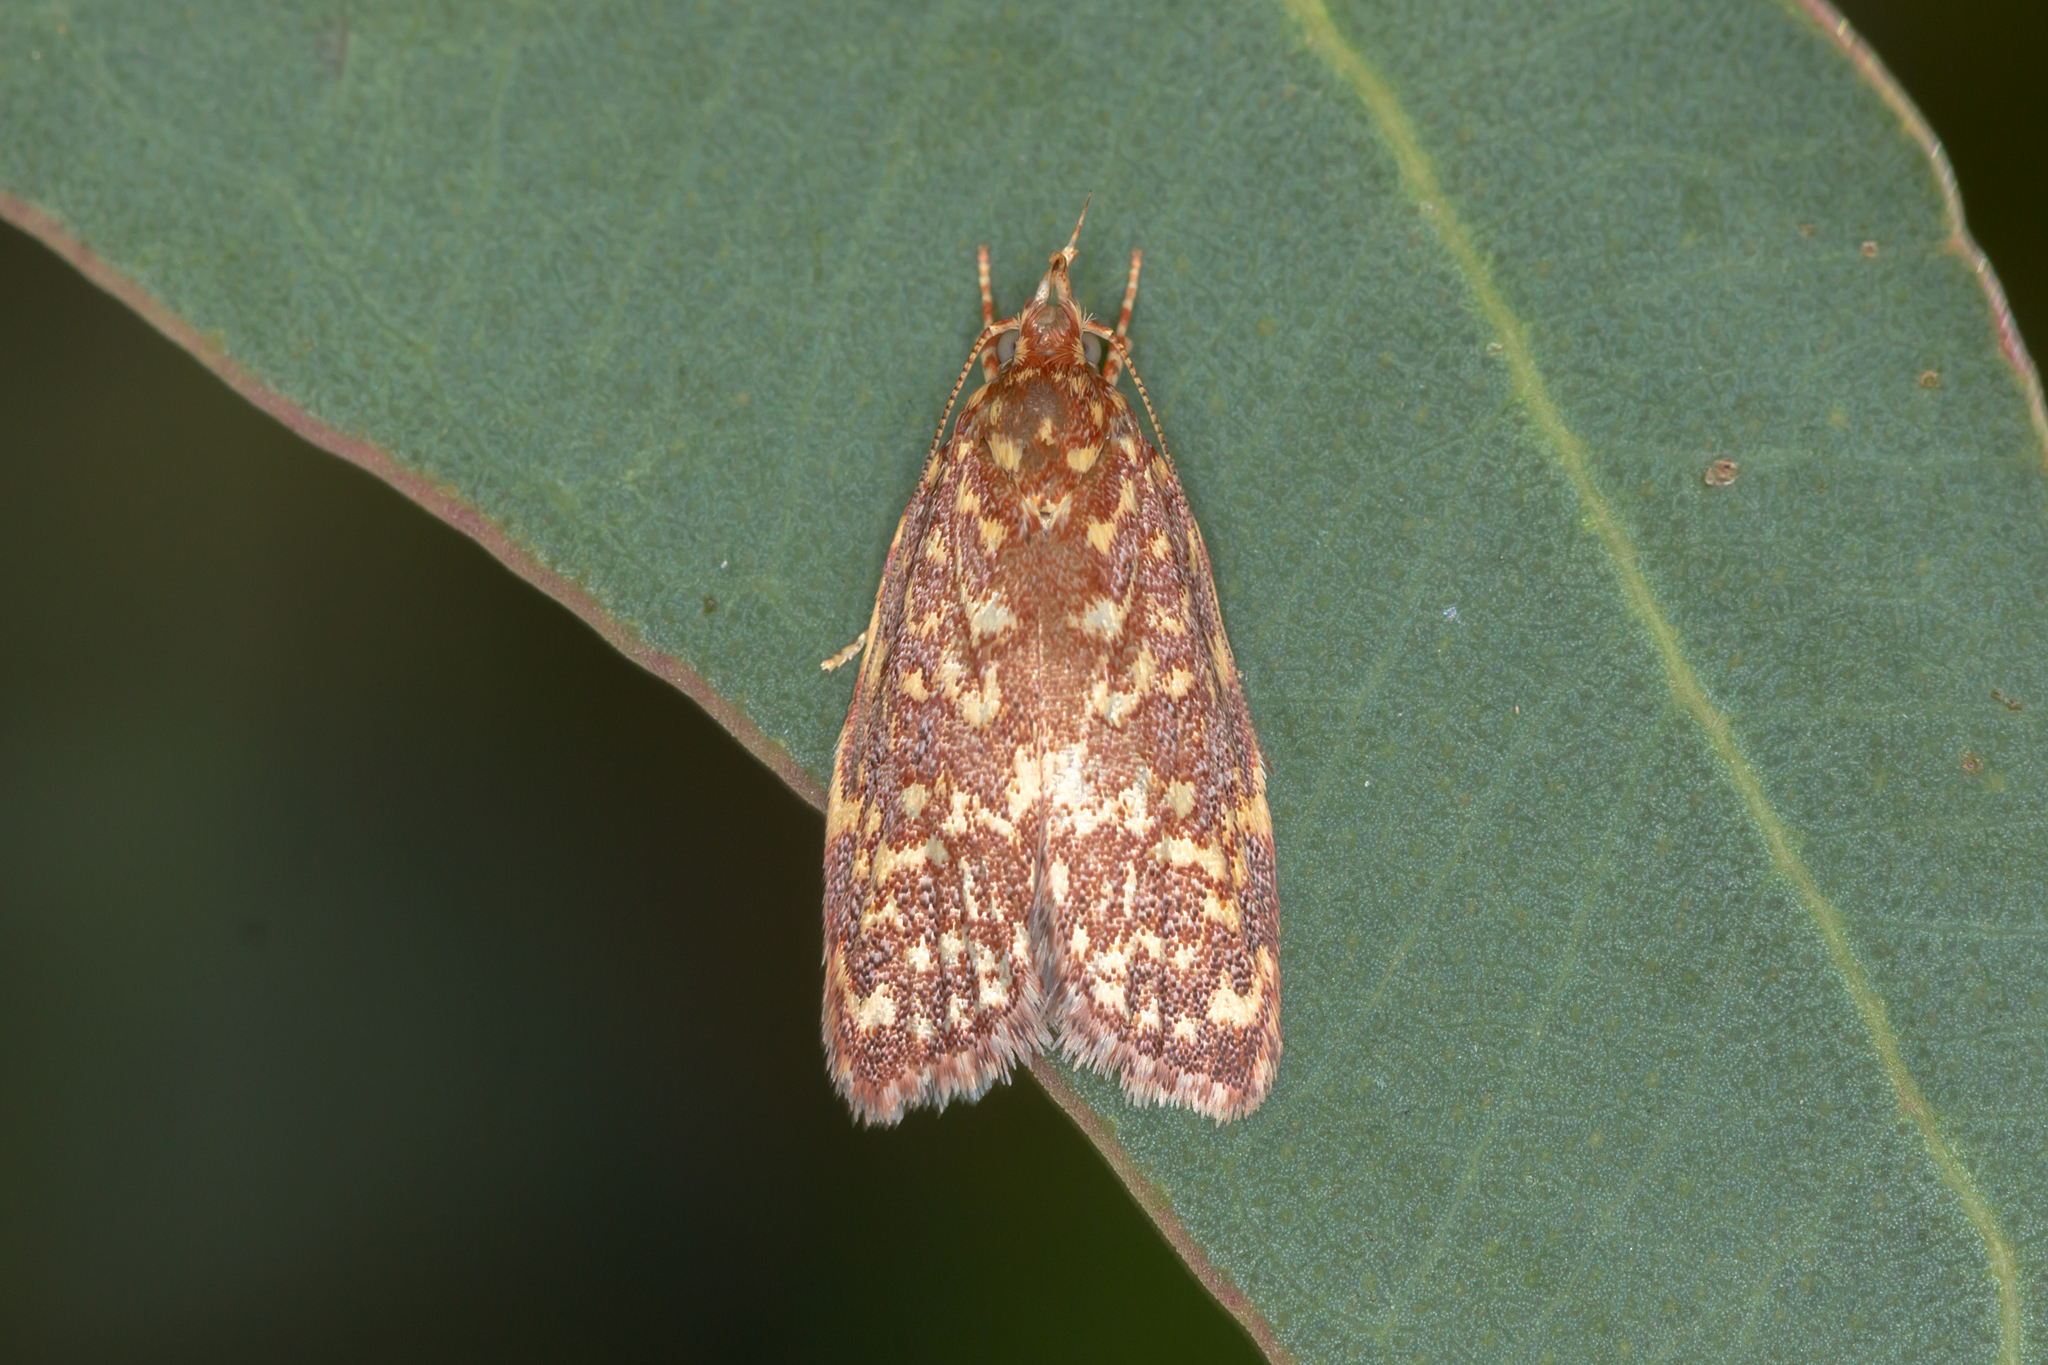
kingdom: Animalia
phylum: Arthropoda
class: Insecta
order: Lepidoptera
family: Oecophoridae
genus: Syringoseca
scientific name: Syringoseca rhodoxantha
